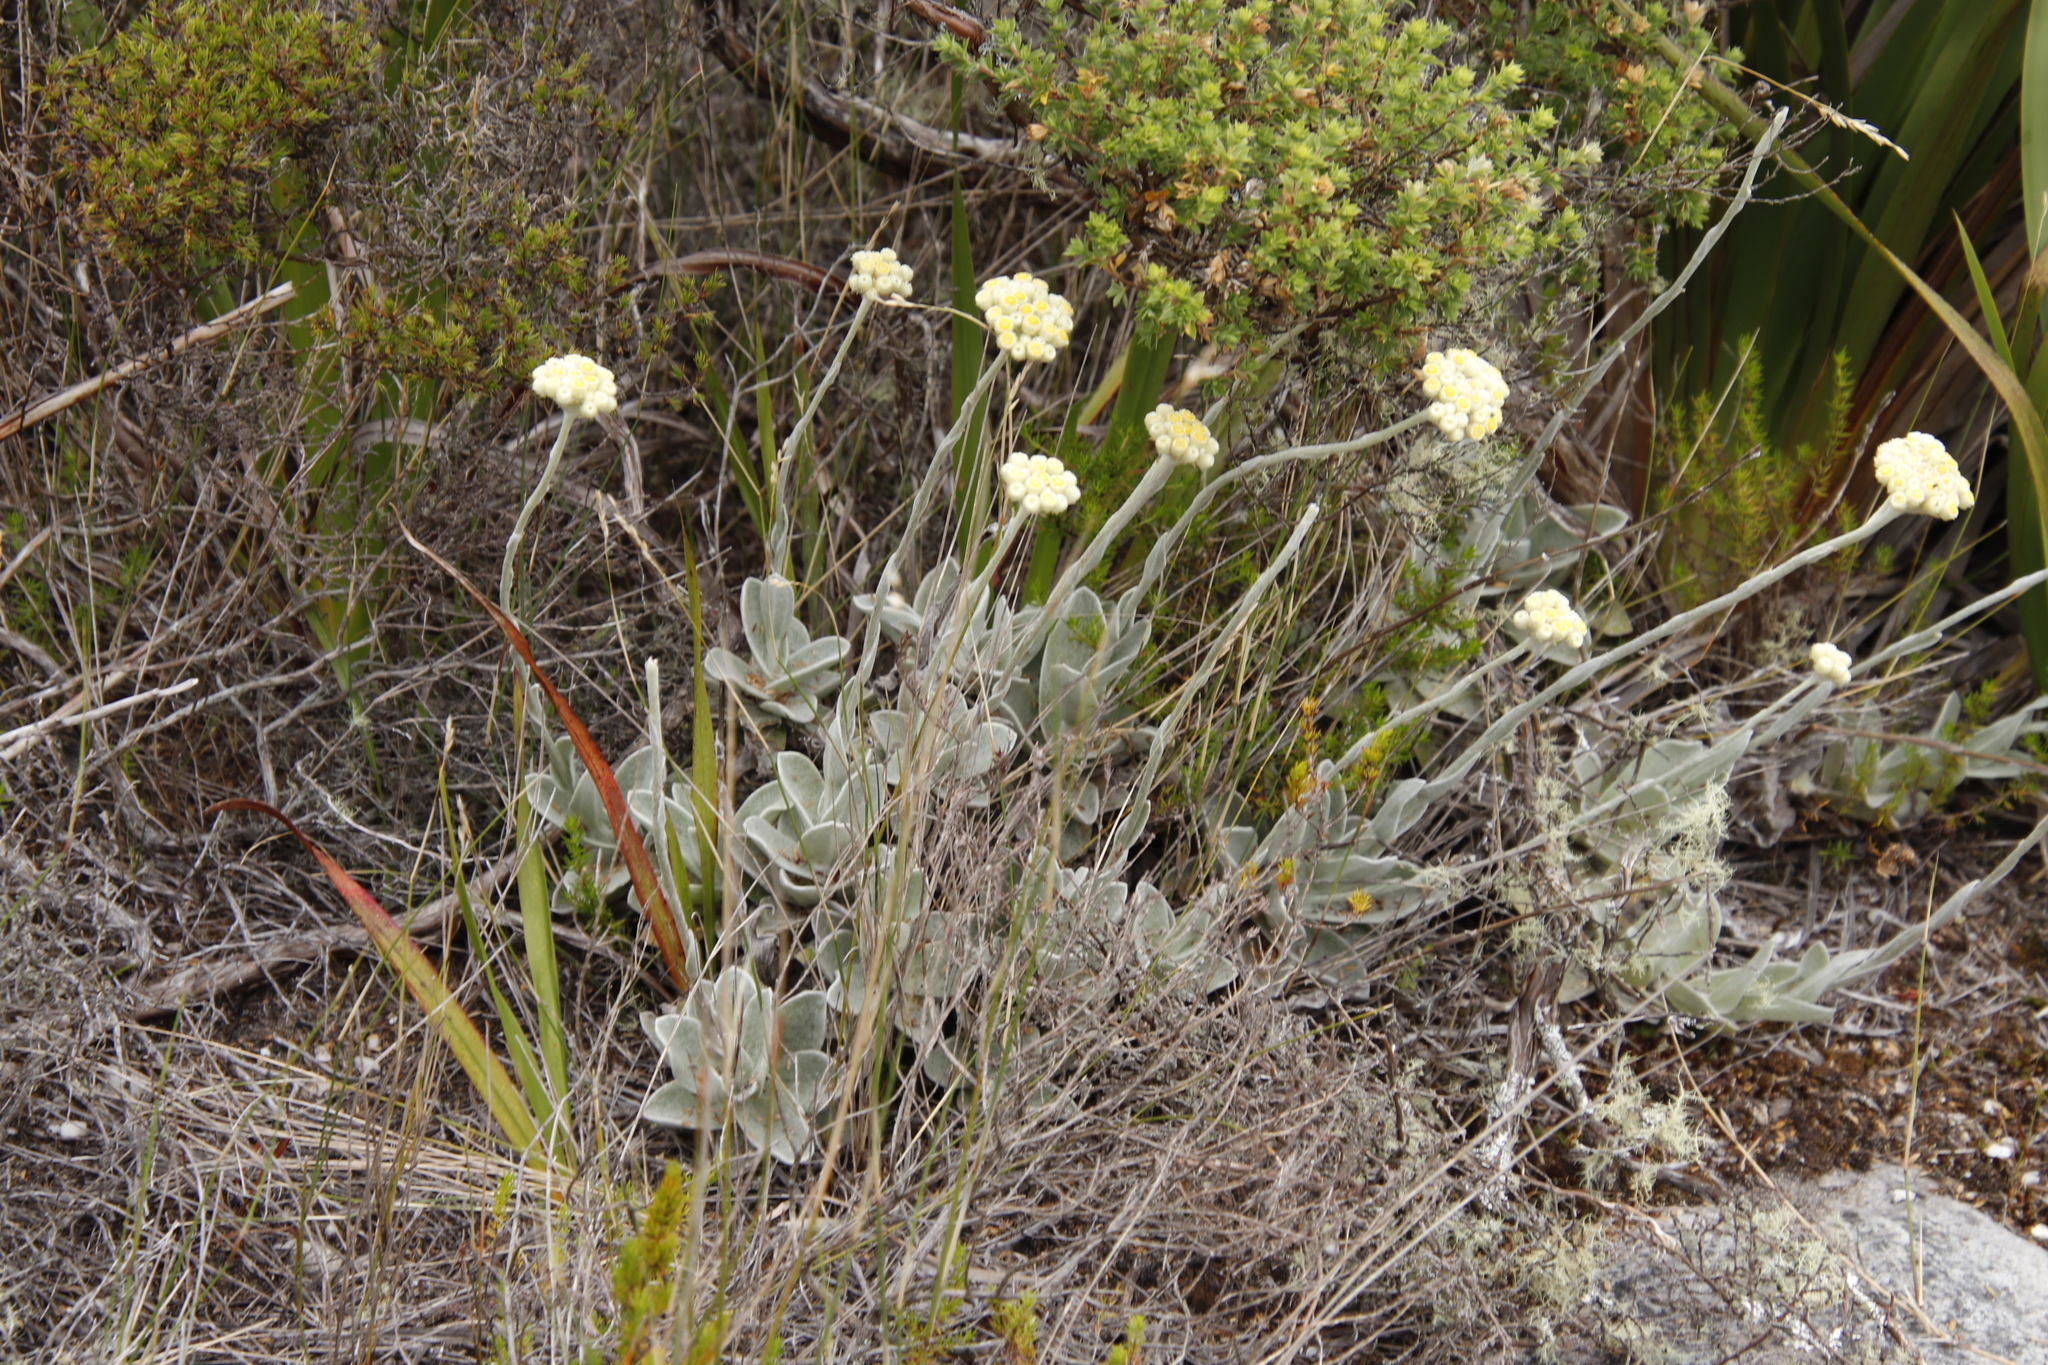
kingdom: Plantae
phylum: Tracheophyta
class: Magnoliopsida
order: Asterales
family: Asteraceae
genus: Helichrysum
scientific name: Helichrysum grandiflorum
